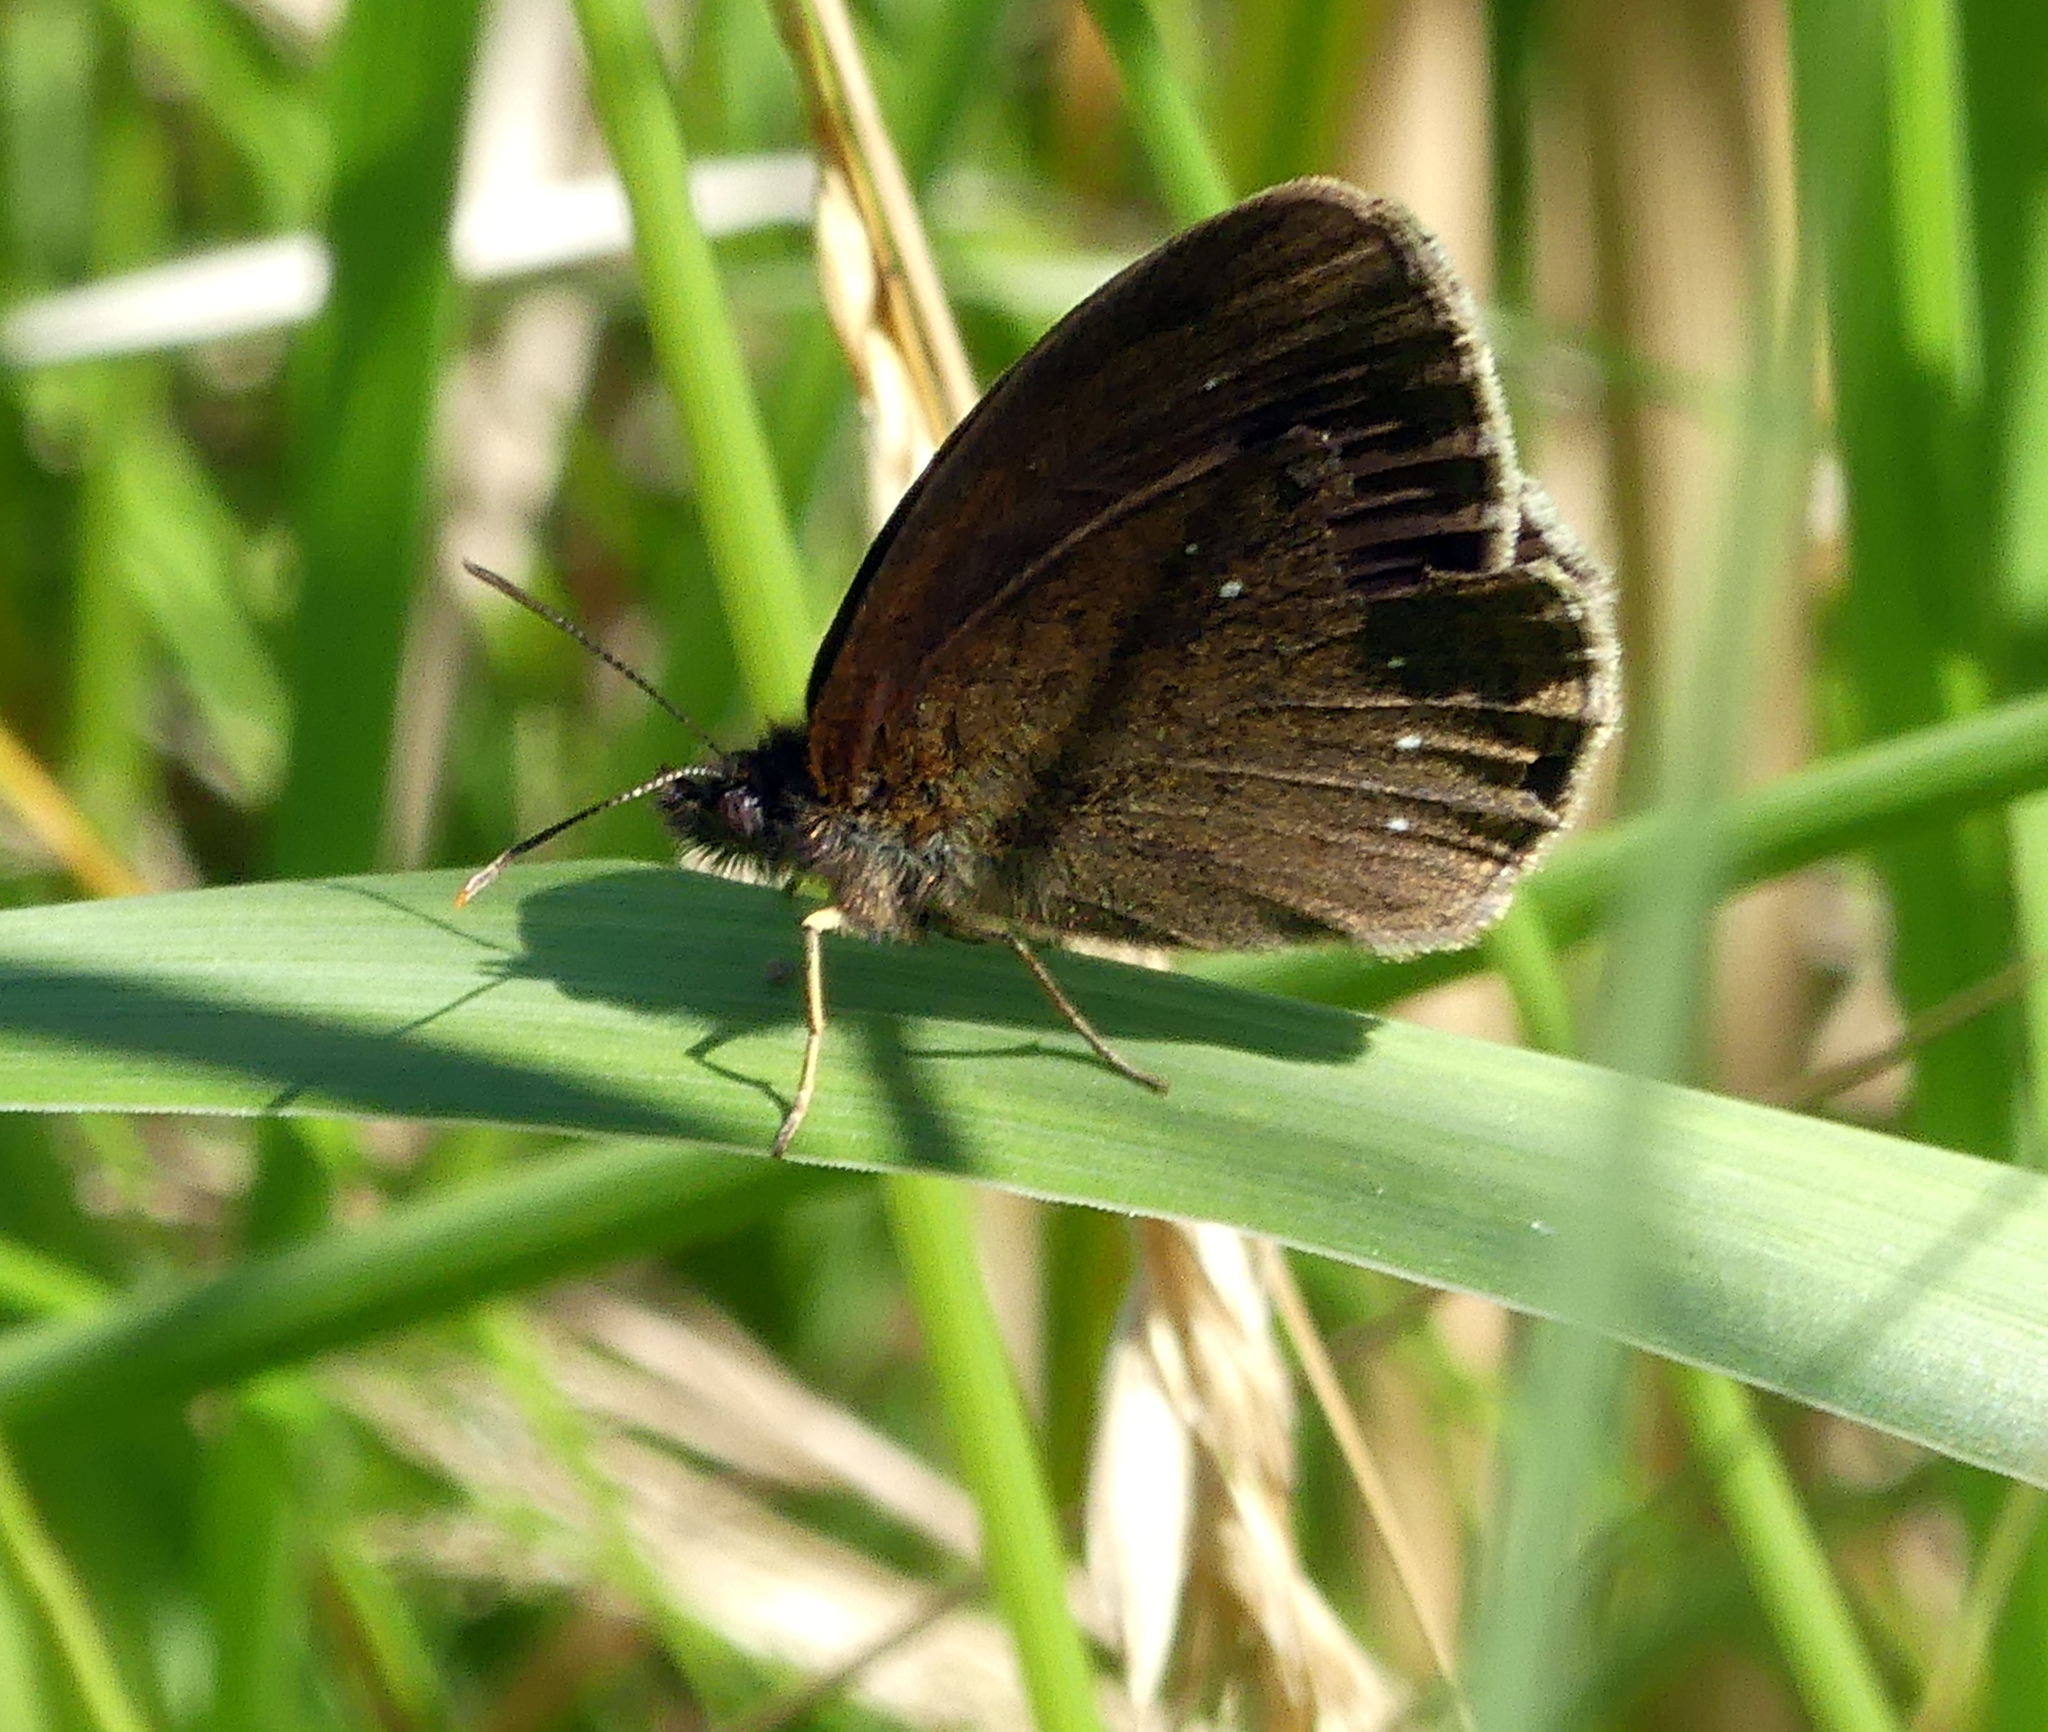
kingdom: Animalia
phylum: Arthropoda
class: Insecta
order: Lepidoptera
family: Nymphalidae
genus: Aphantopus
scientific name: Aphantopus hyperantus
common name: Ringlet
